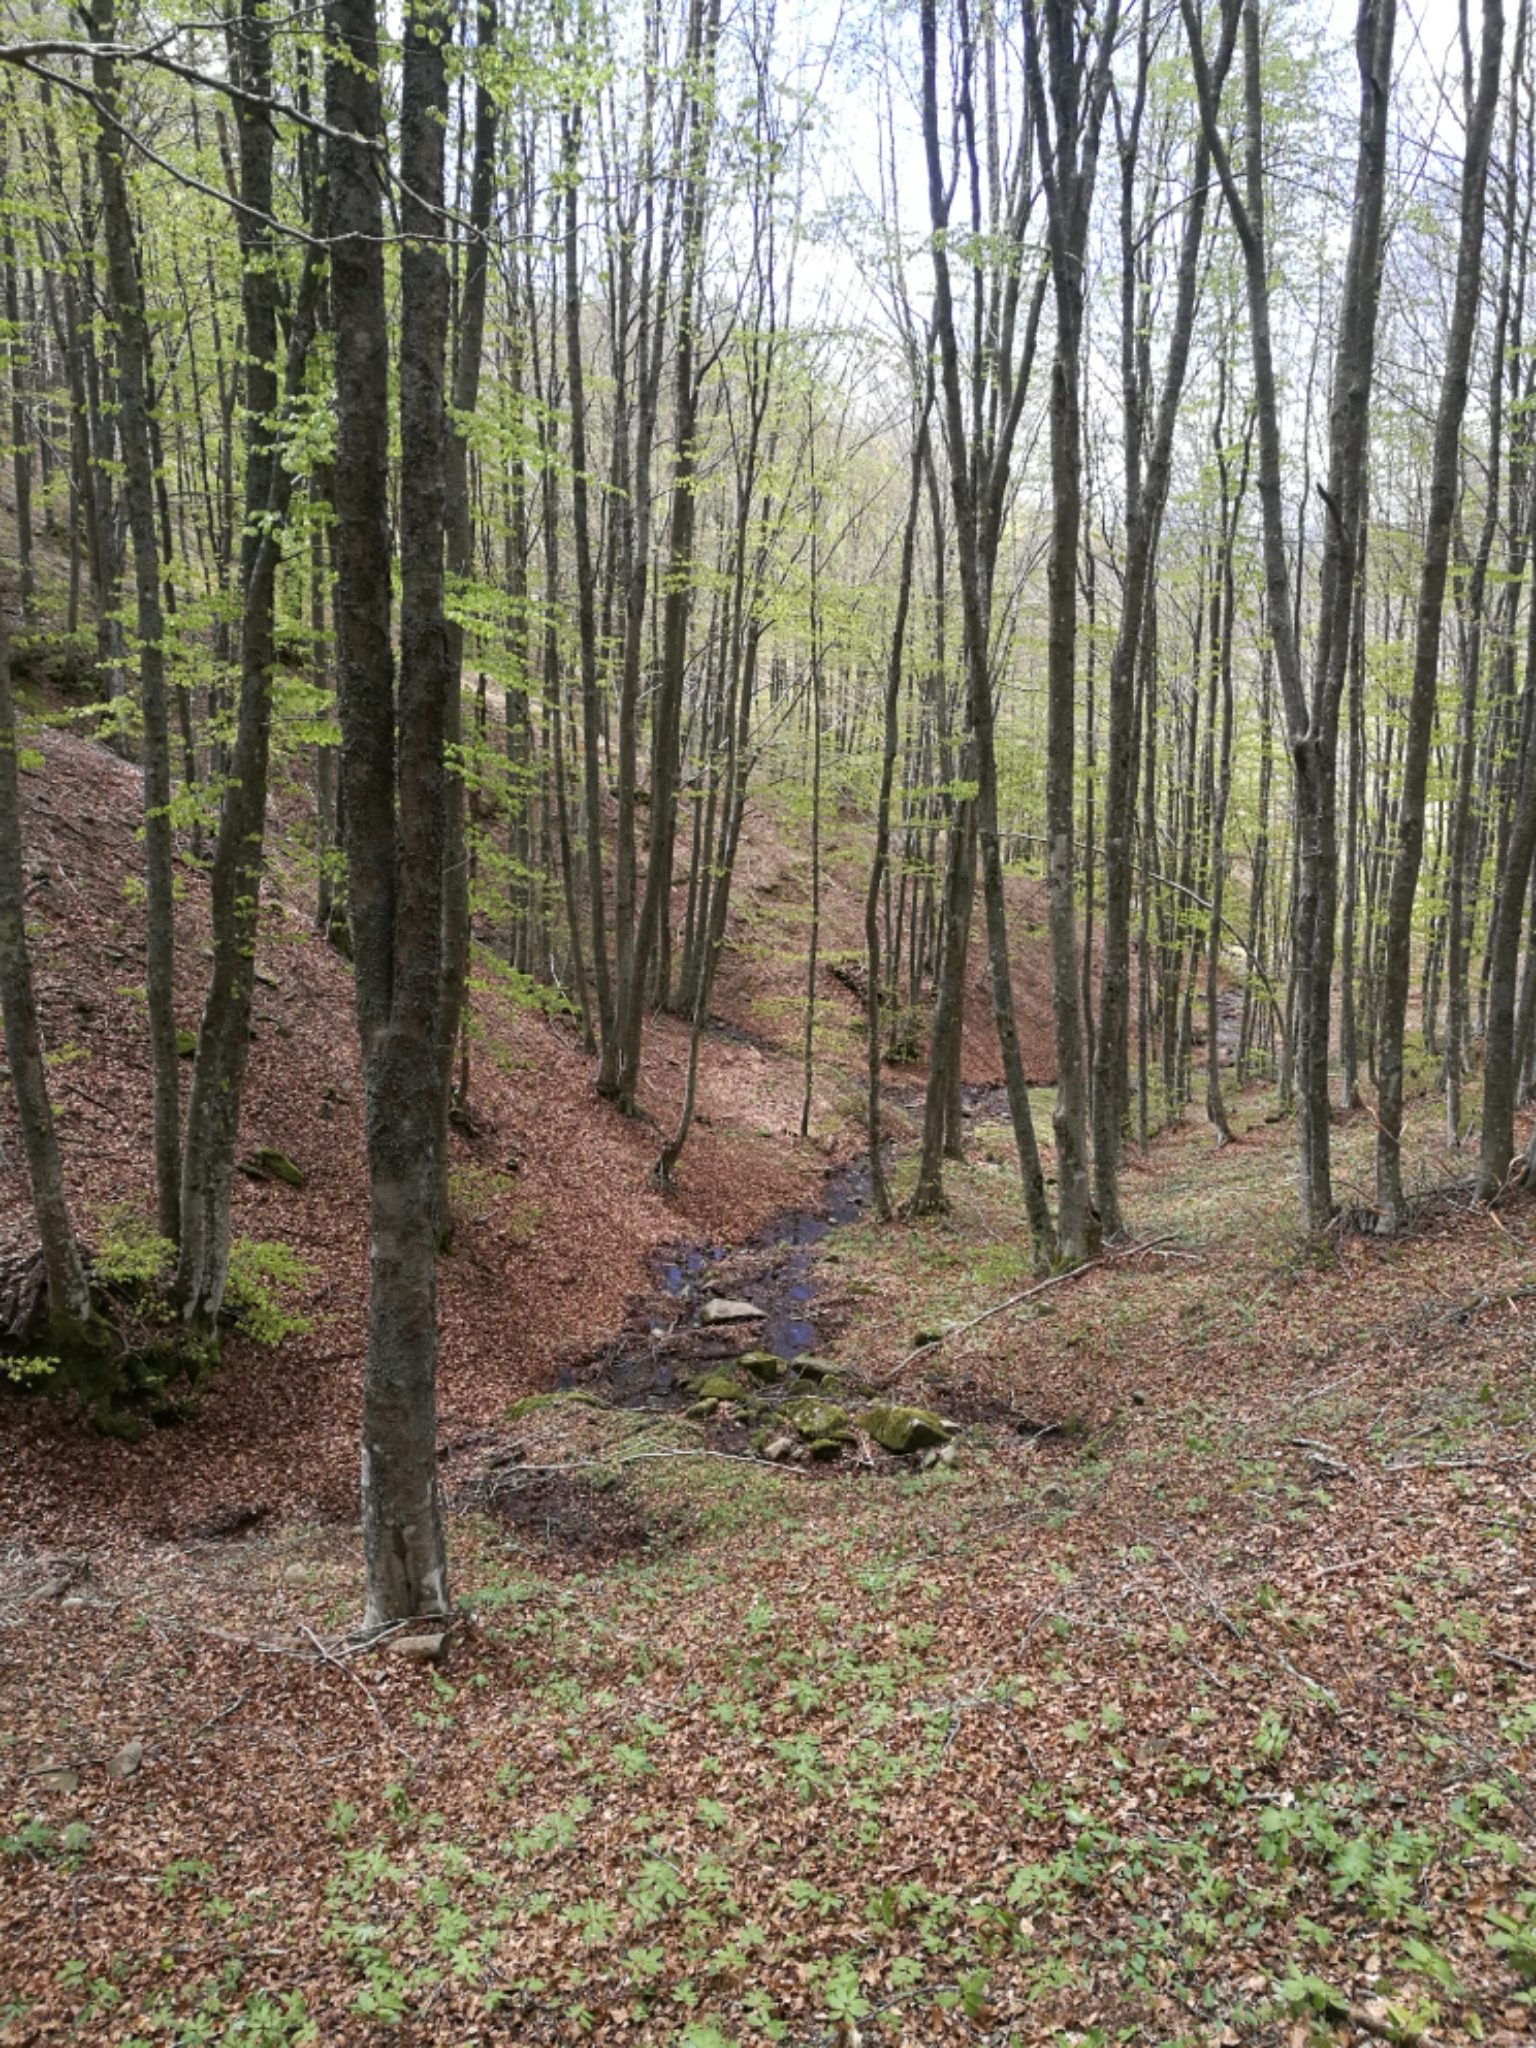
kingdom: Plantae
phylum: Tracheophyta
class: Magnoliopsida
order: Fagales
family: Fagaceae
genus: Fagus
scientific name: Fagus sylvatica
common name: Beech
